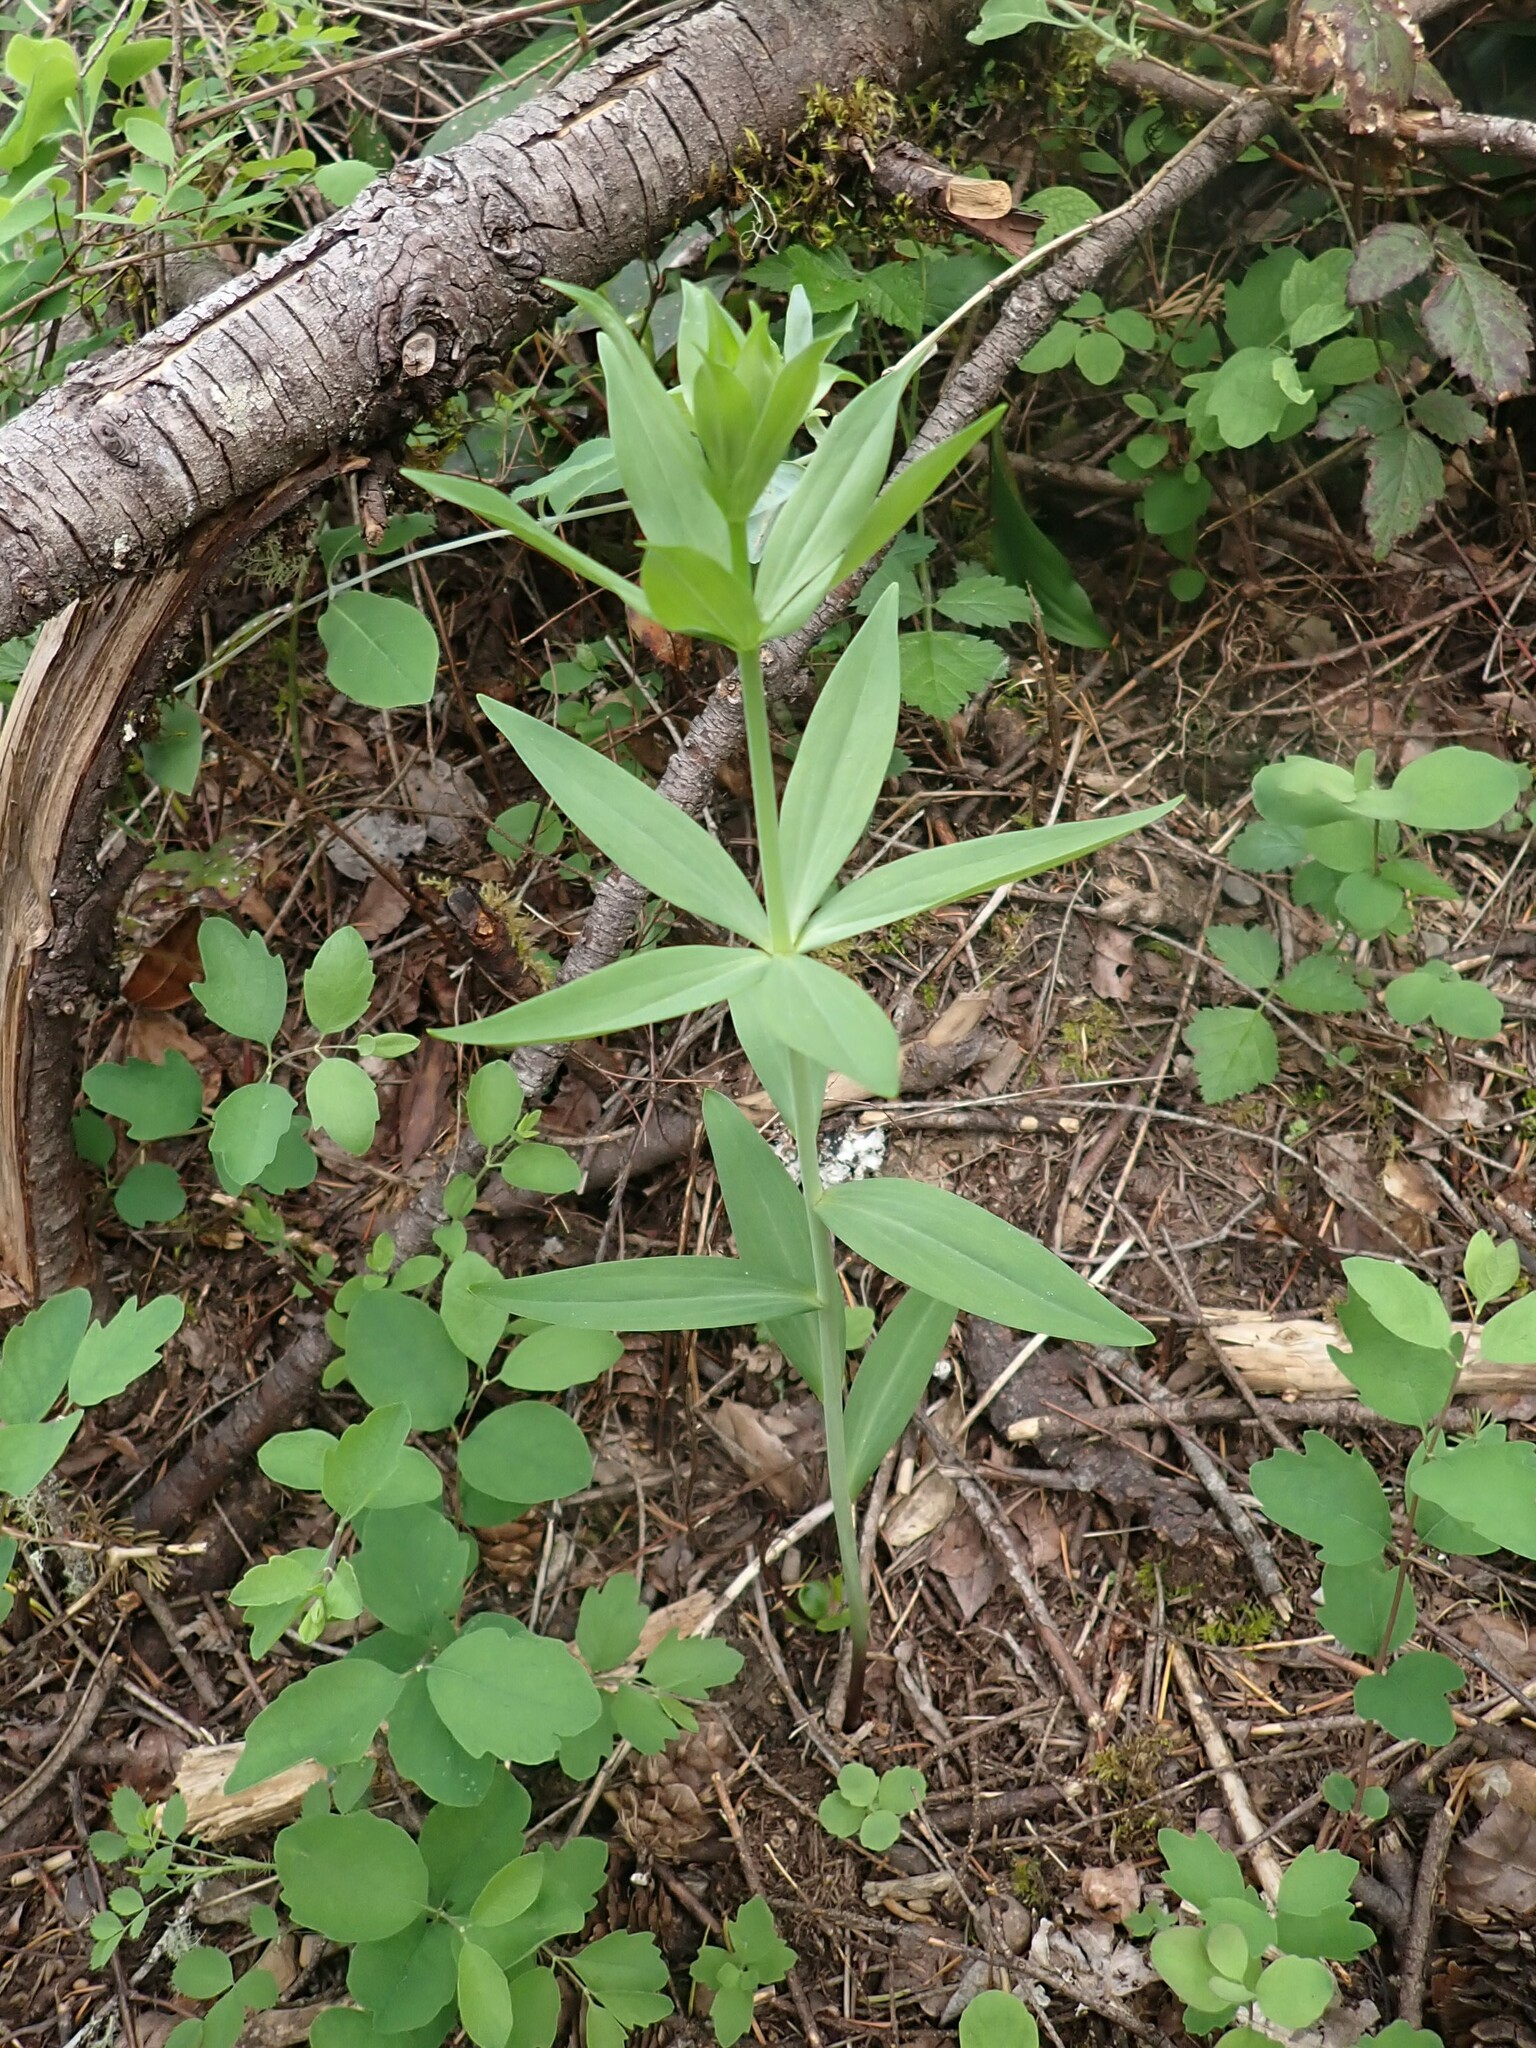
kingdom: Plantae
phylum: Tracheophyta
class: Liliopsida
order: Liliales
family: Liliaceae
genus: Lilium
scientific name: Lilium columbianum
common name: Columbia lily
